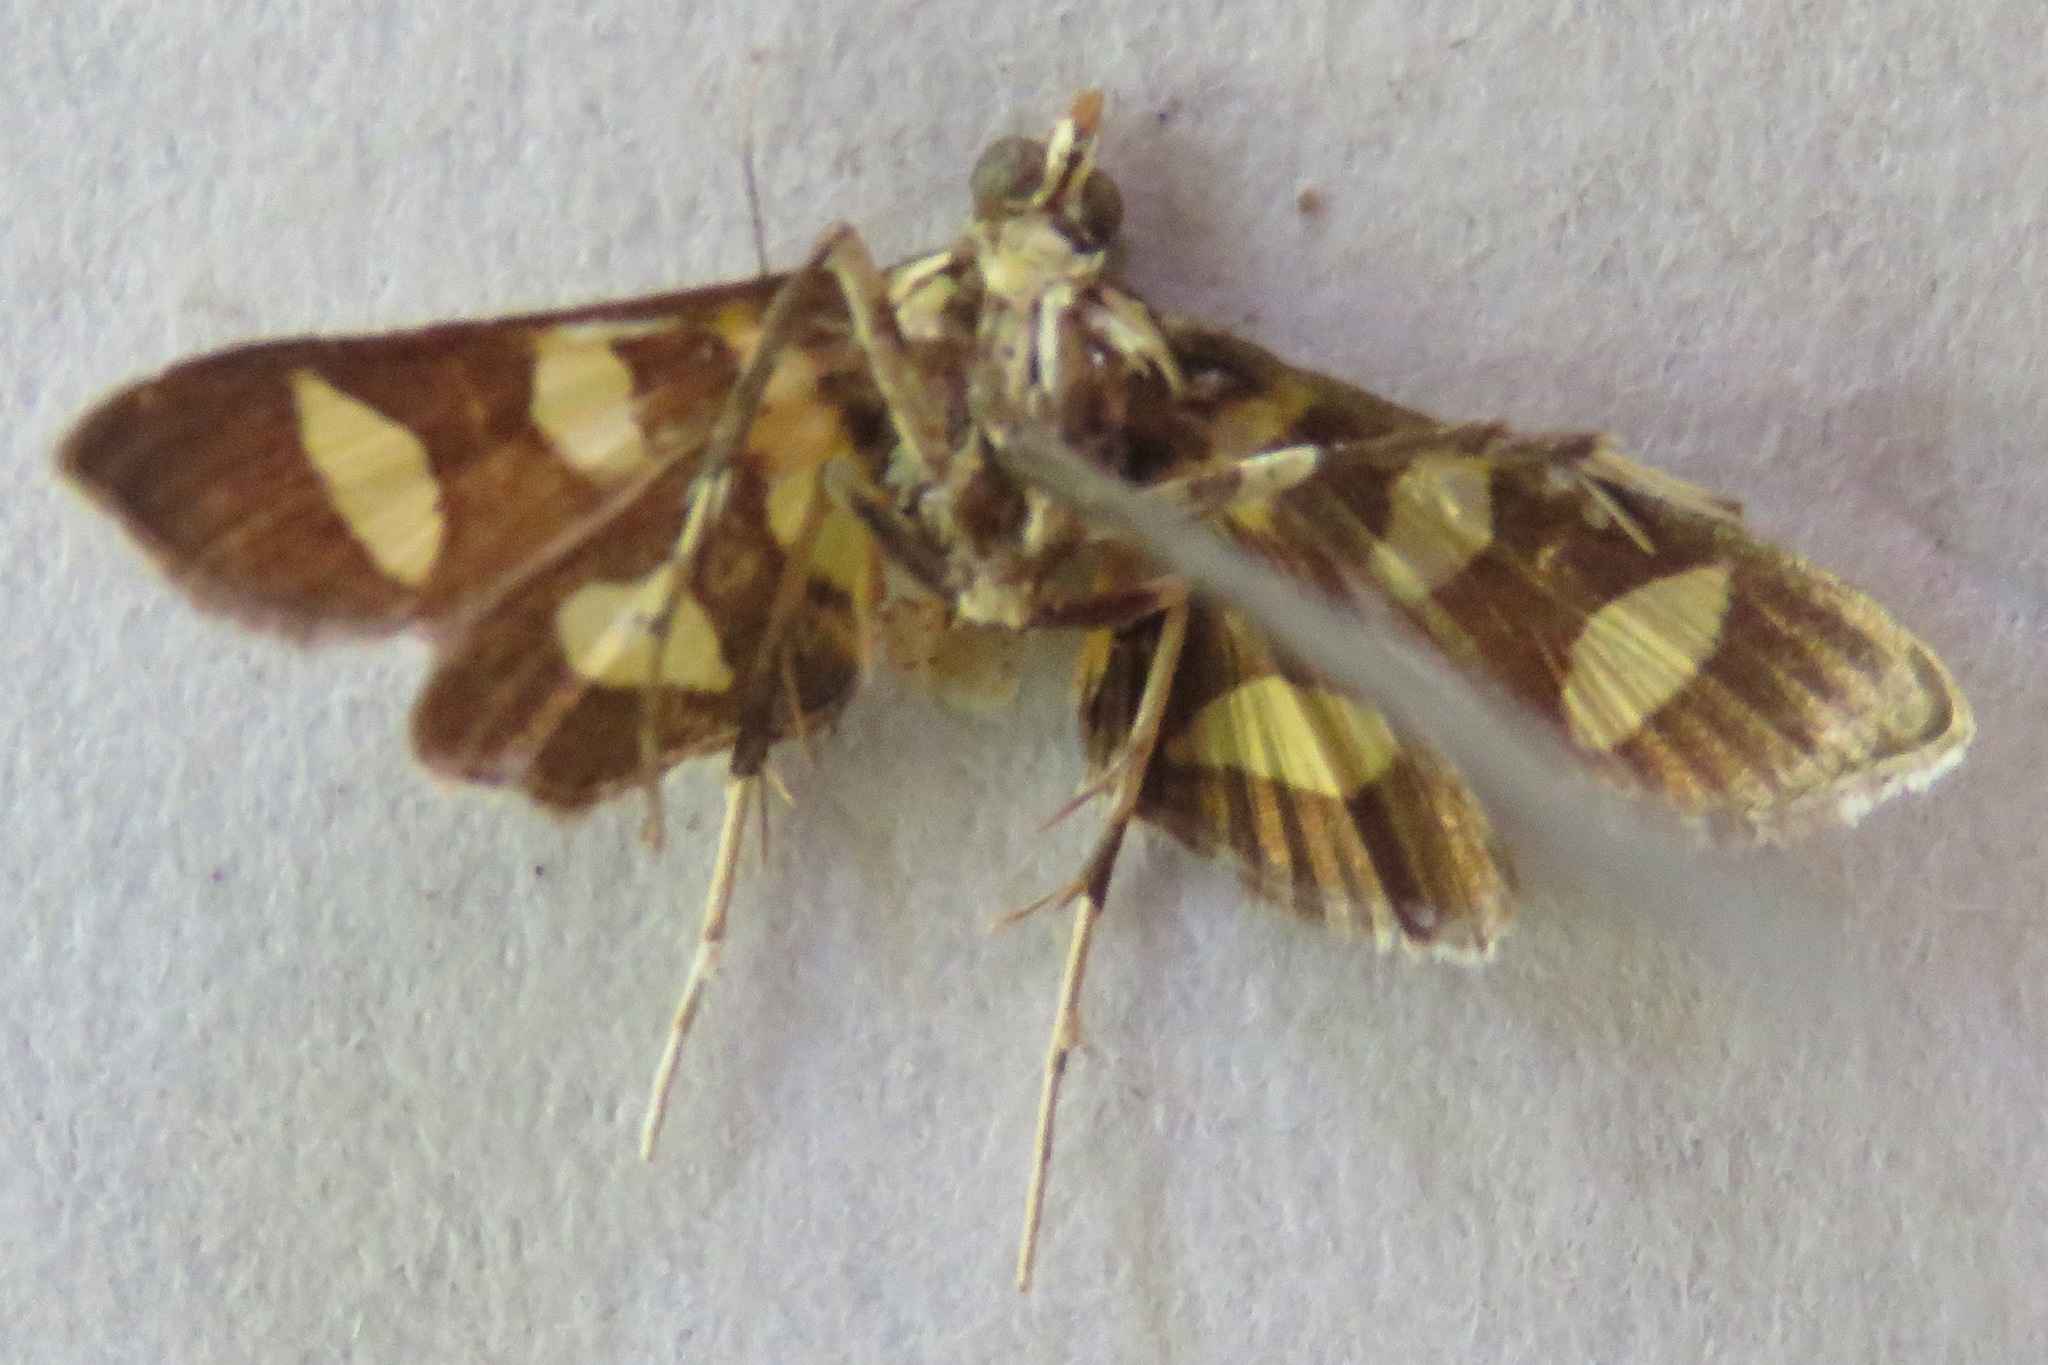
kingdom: Animalia
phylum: Arthropoda
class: Insecta
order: Lepidoptera
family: Crambidae
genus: Syngamia
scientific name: Syngamia florella
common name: Orange-spotted flower moth
